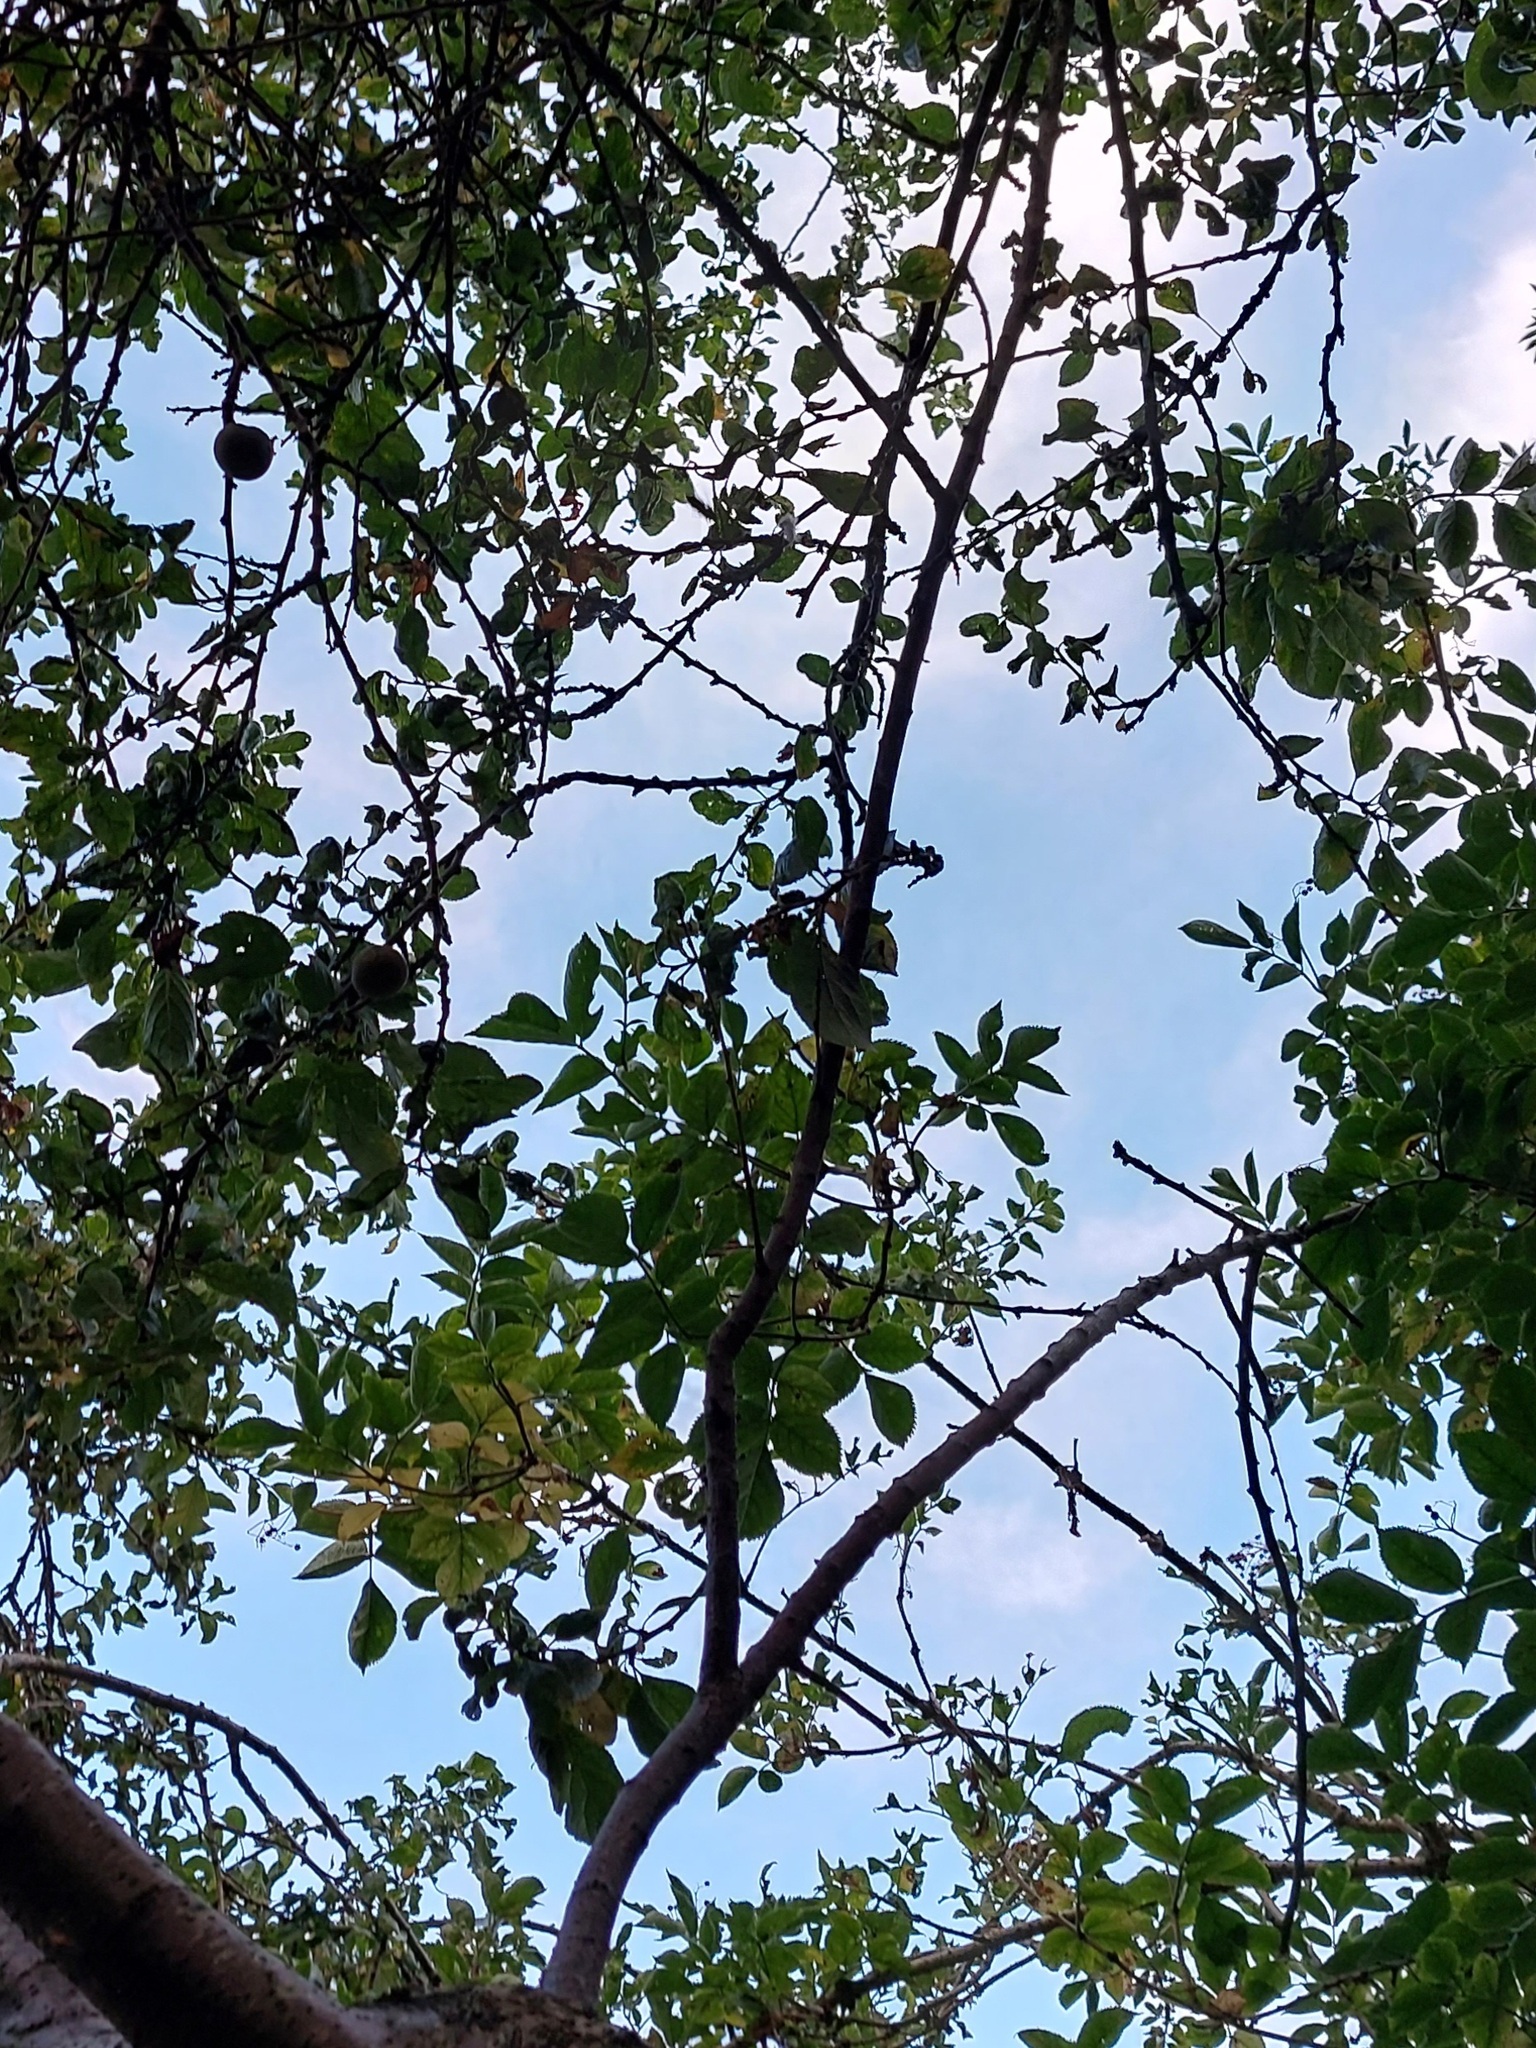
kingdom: Animalia
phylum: Arthropoda
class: Insecta
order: Hymenoptera
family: Vespidae
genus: Vespa
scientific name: Vespa velutina
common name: Asian hornet
